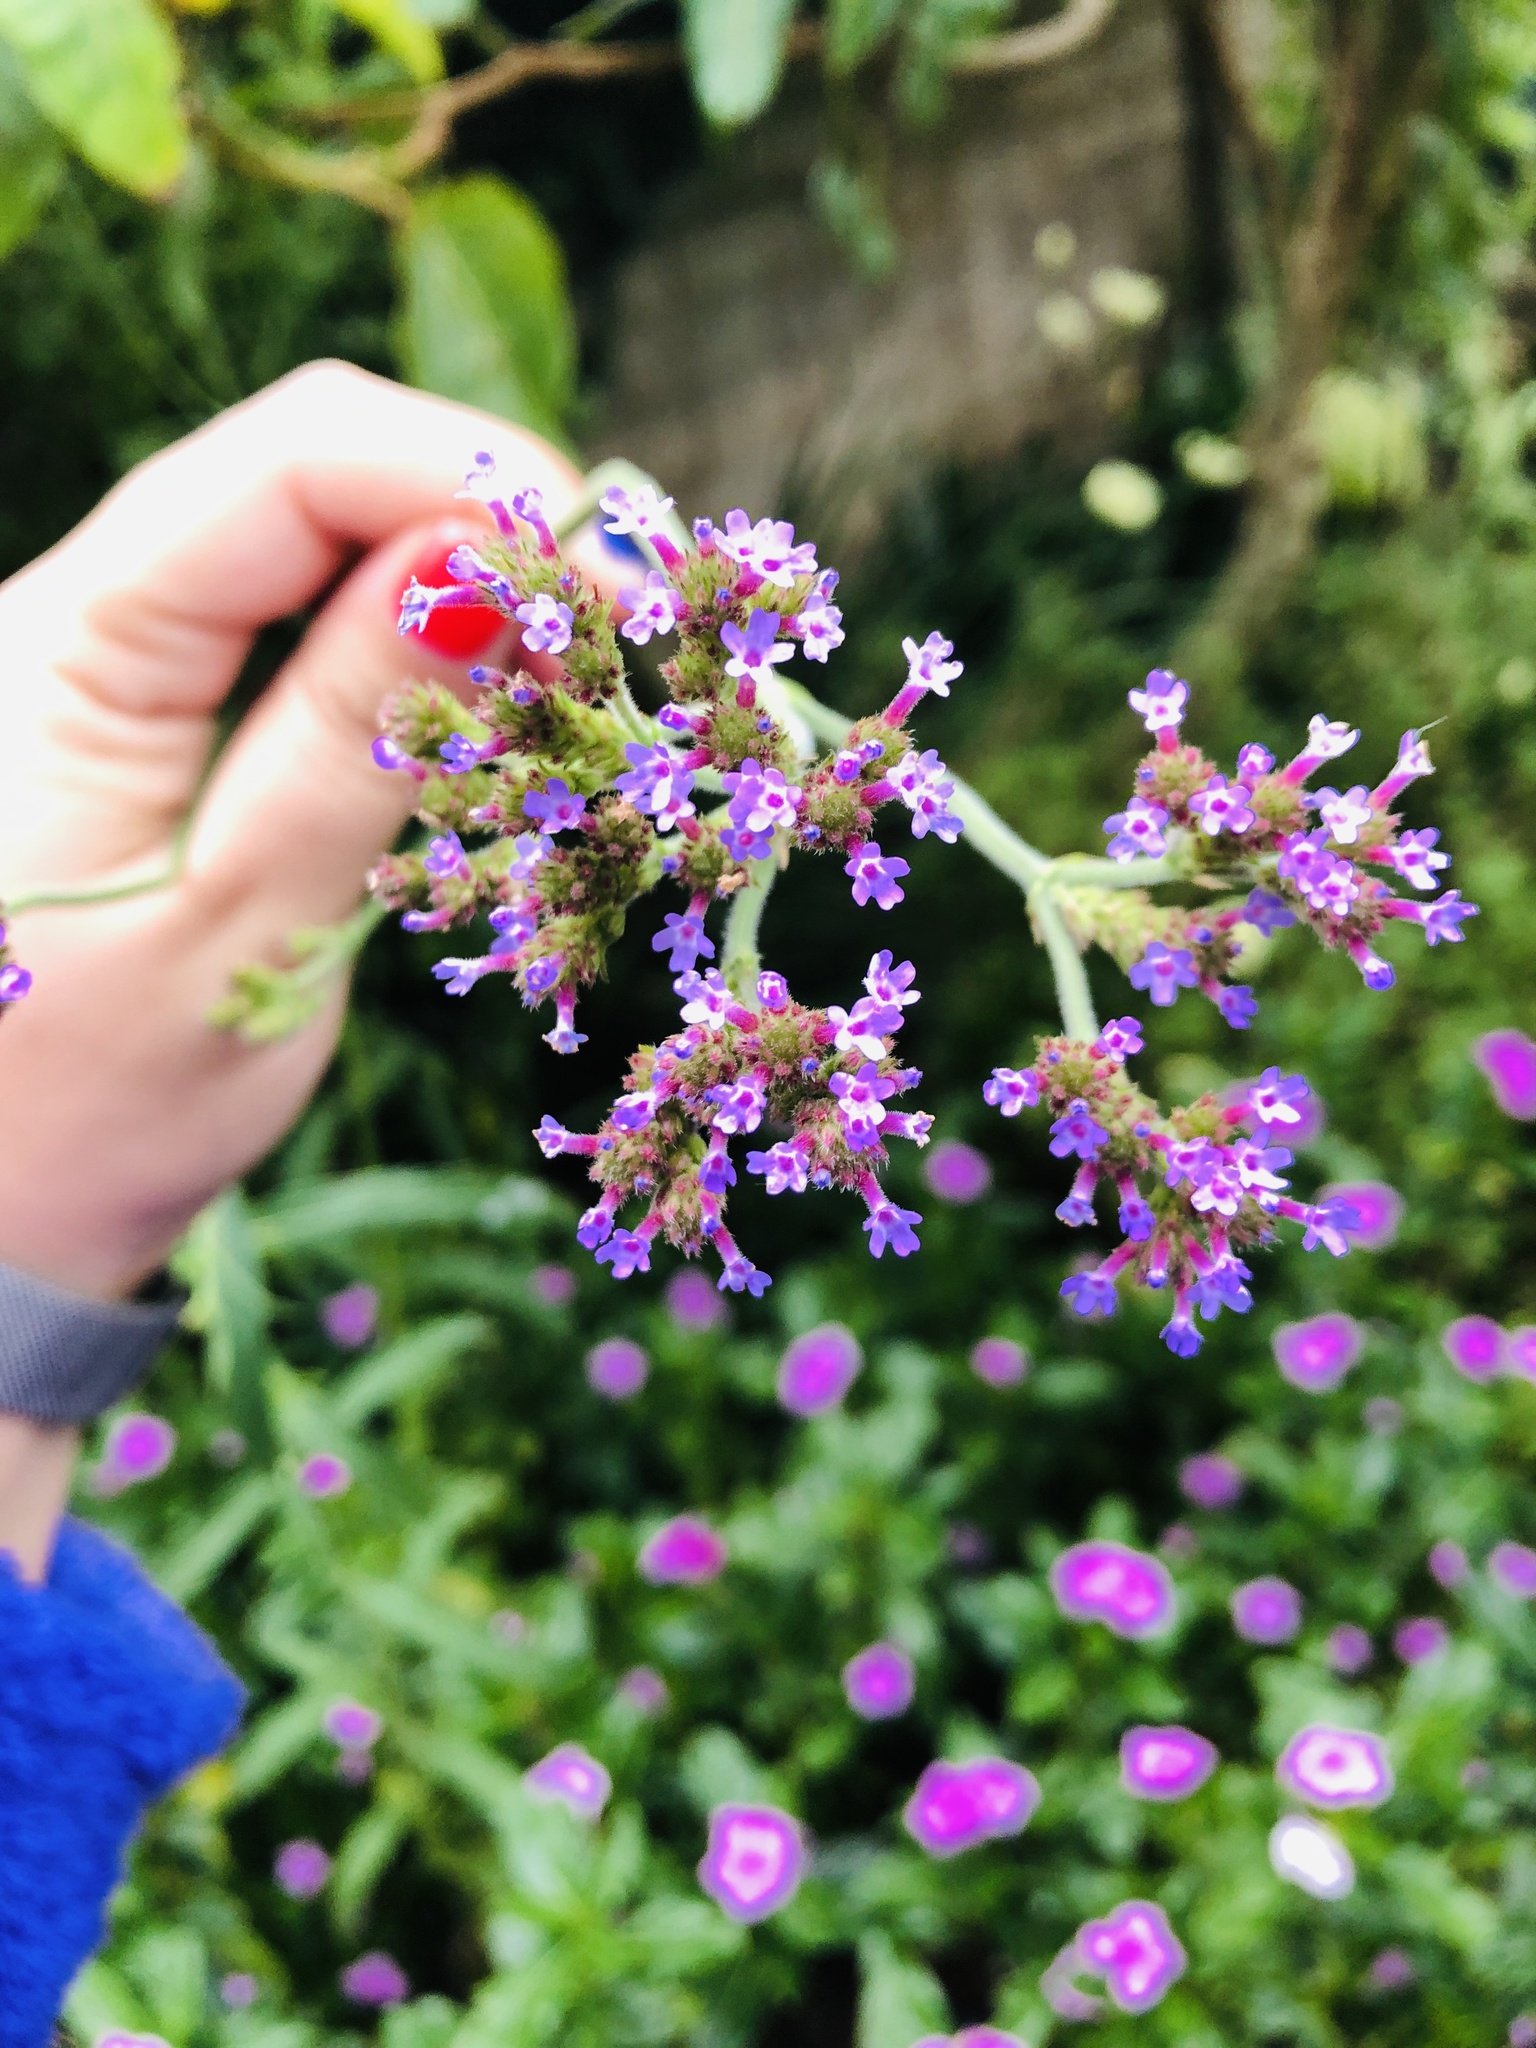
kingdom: Plantae
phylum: Tracheophyta
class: Magnoliopsida
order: Lamiales
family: Verbenaceae
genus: Verbena
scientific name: Verbena bonariensis
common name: Purpletop vervain
